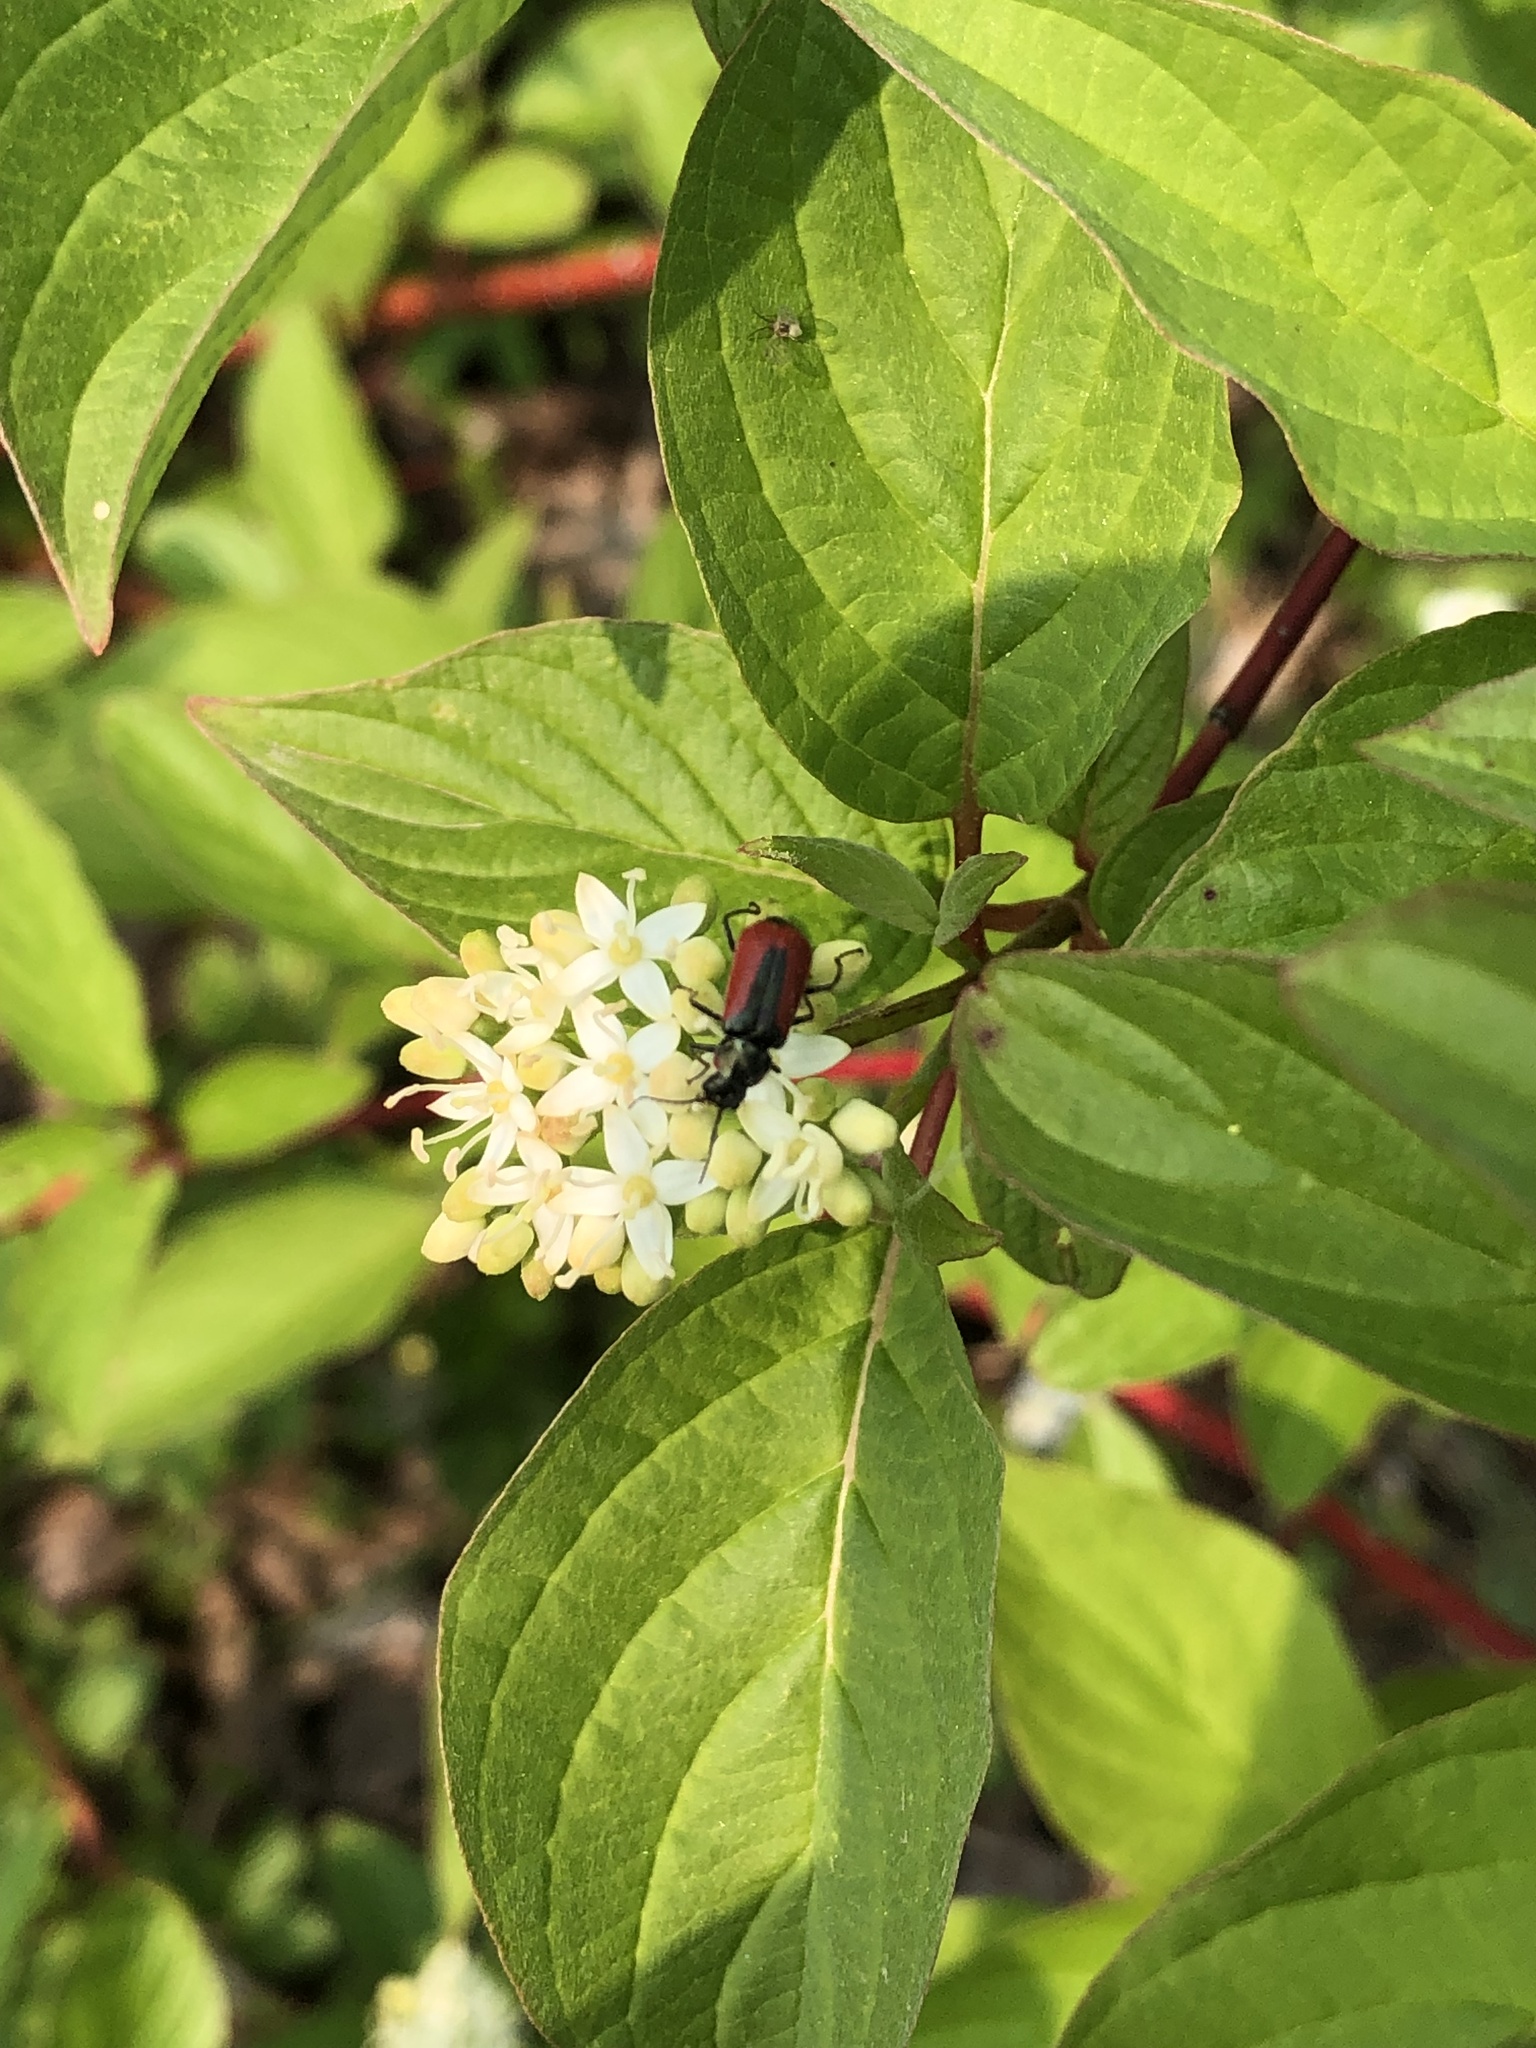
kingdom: Animalia
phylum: Arthropoda
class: Insecta
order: Coleoptera
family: Melyridae
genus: Malachius
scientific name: Malachius aeneus
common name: Scarlet malachite beetle
